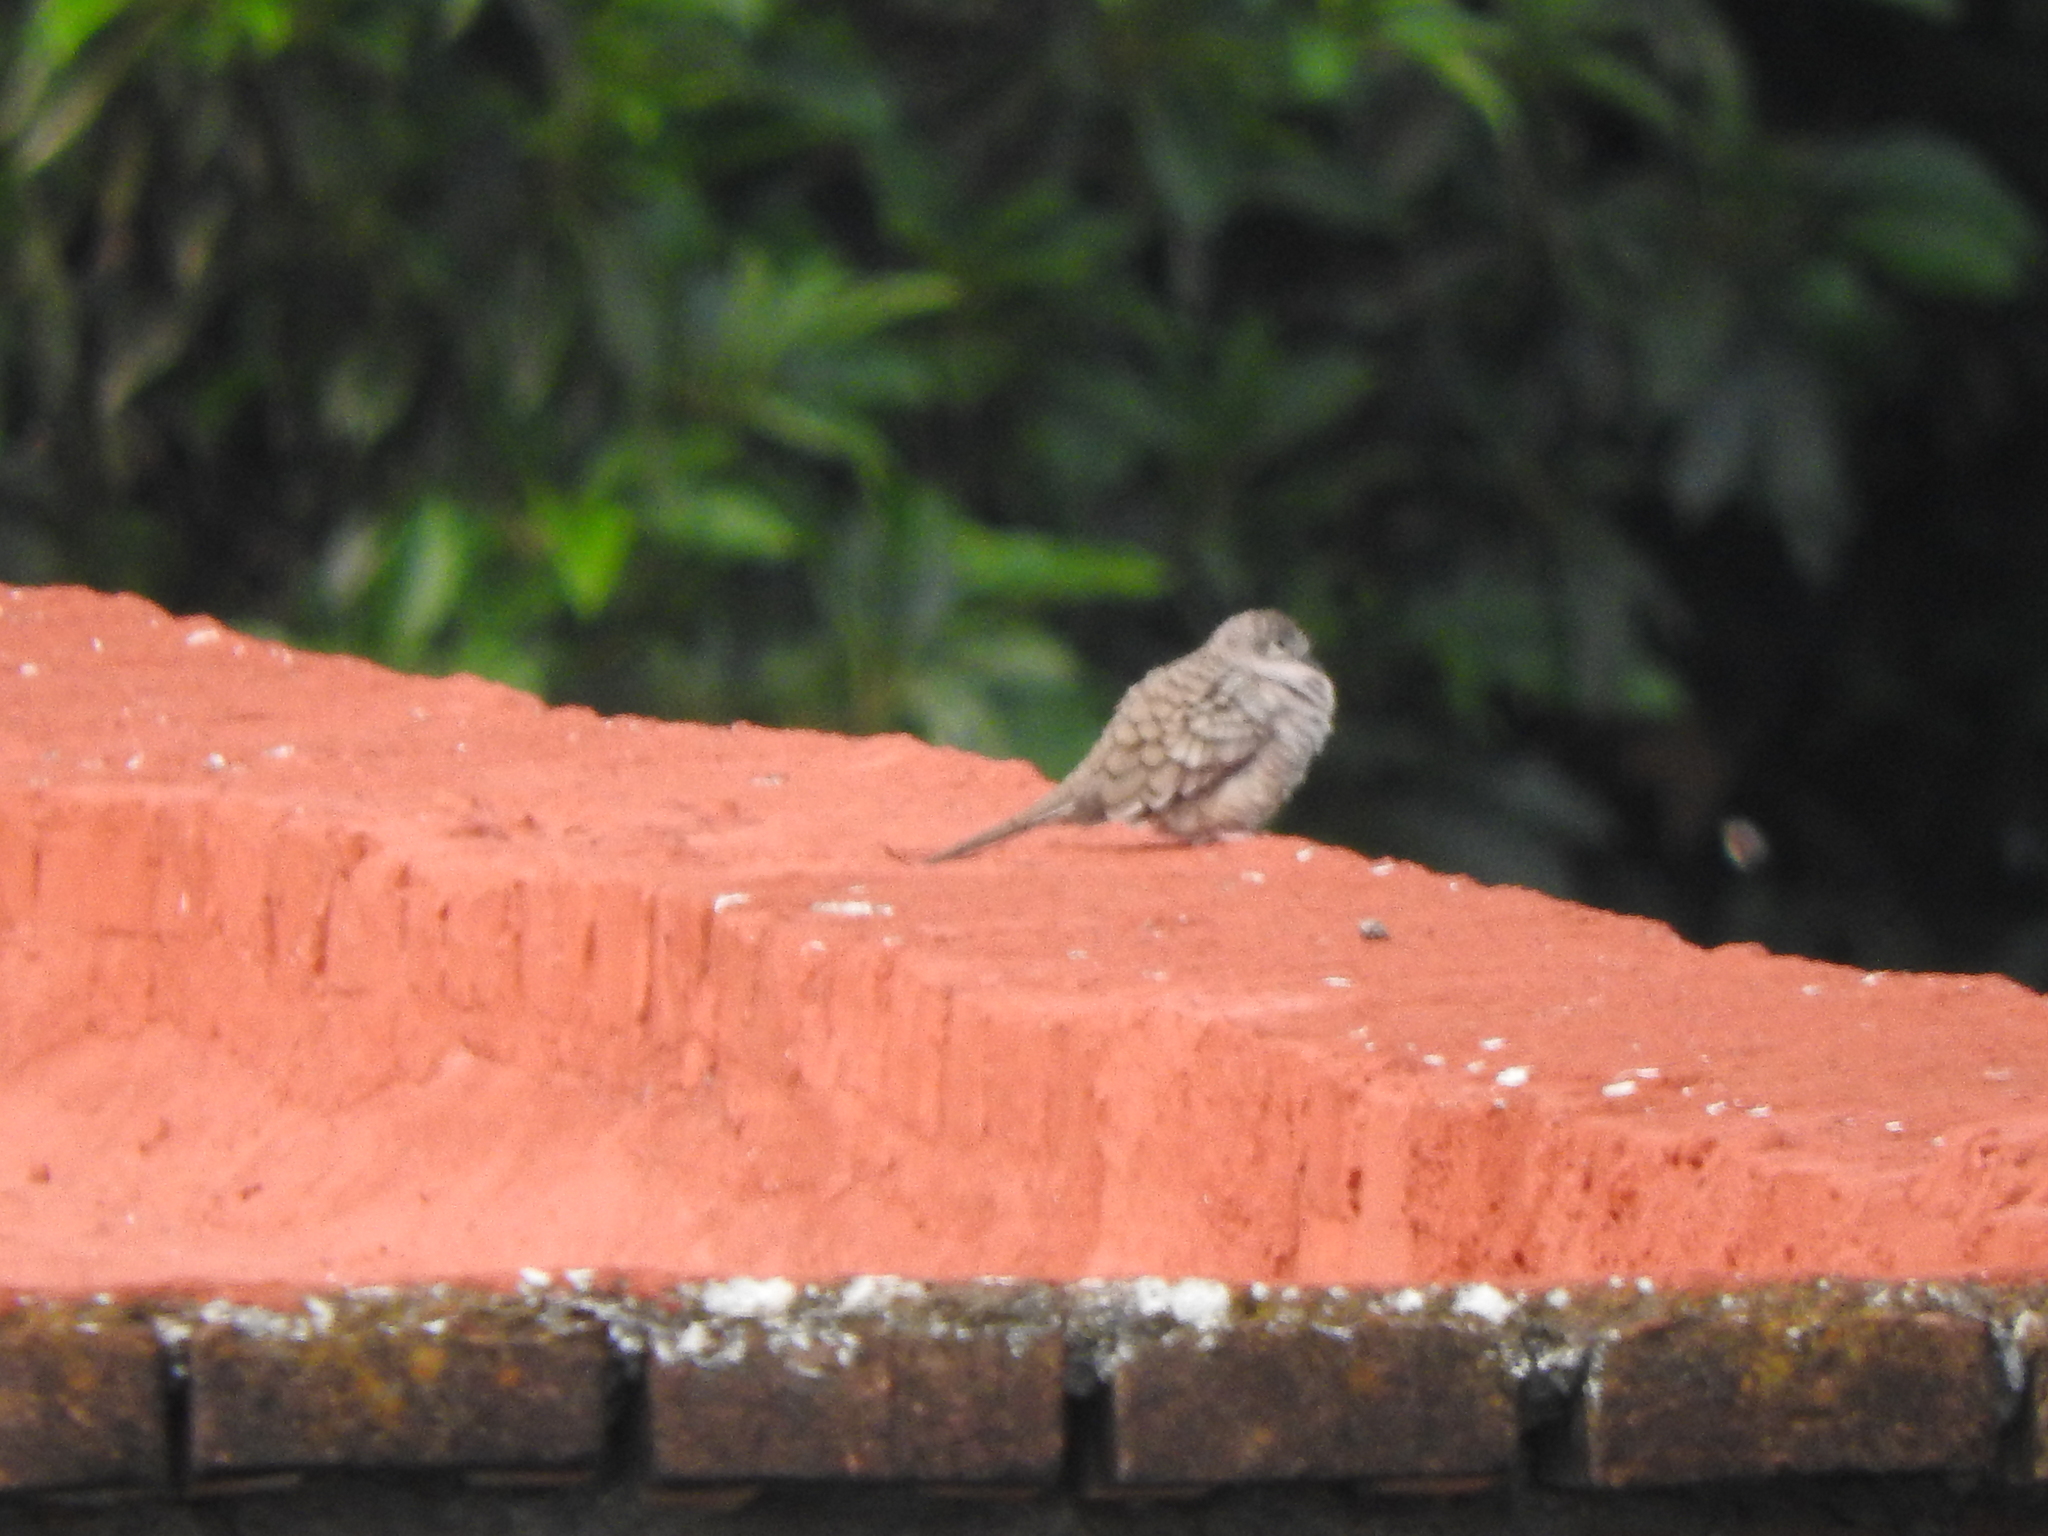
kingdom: Animalia
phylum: Chordata
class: Aves
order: Columbiformes
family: Columbidae
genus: Columbina
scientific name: Columbina inca
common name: Inca dove
